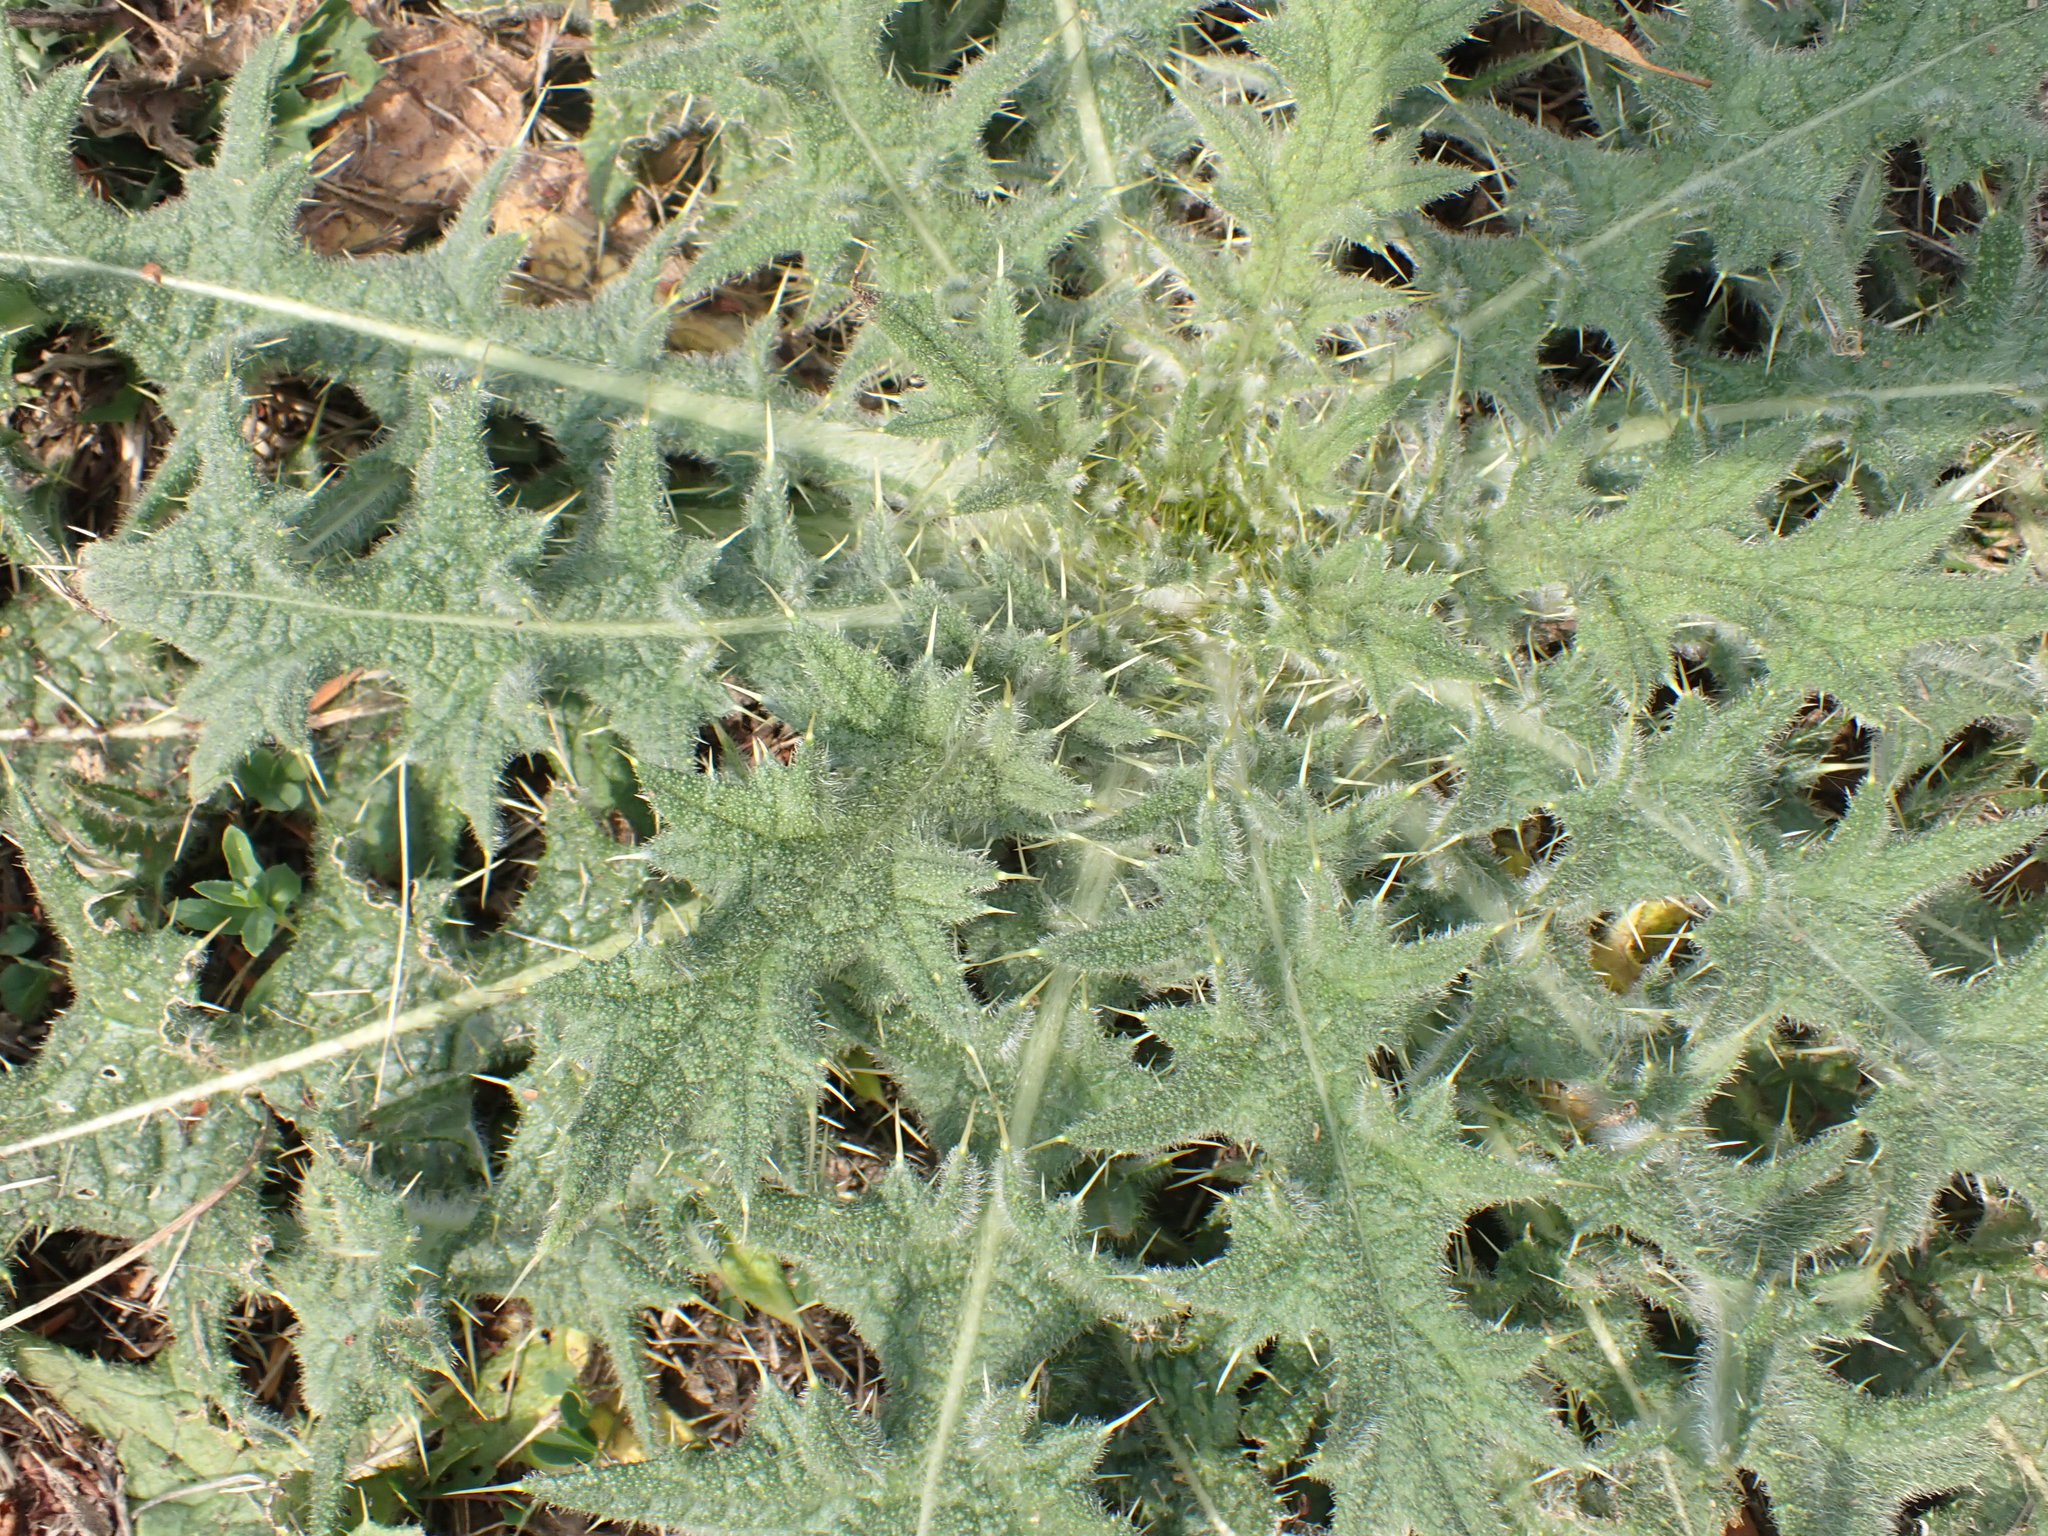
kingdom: Plantae
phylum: Tracheophyta
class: Magnoliopsida
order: Asterales
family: Asteraceae
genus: Cirsium
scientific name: Cirsium vulgare
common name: Bull thistle
